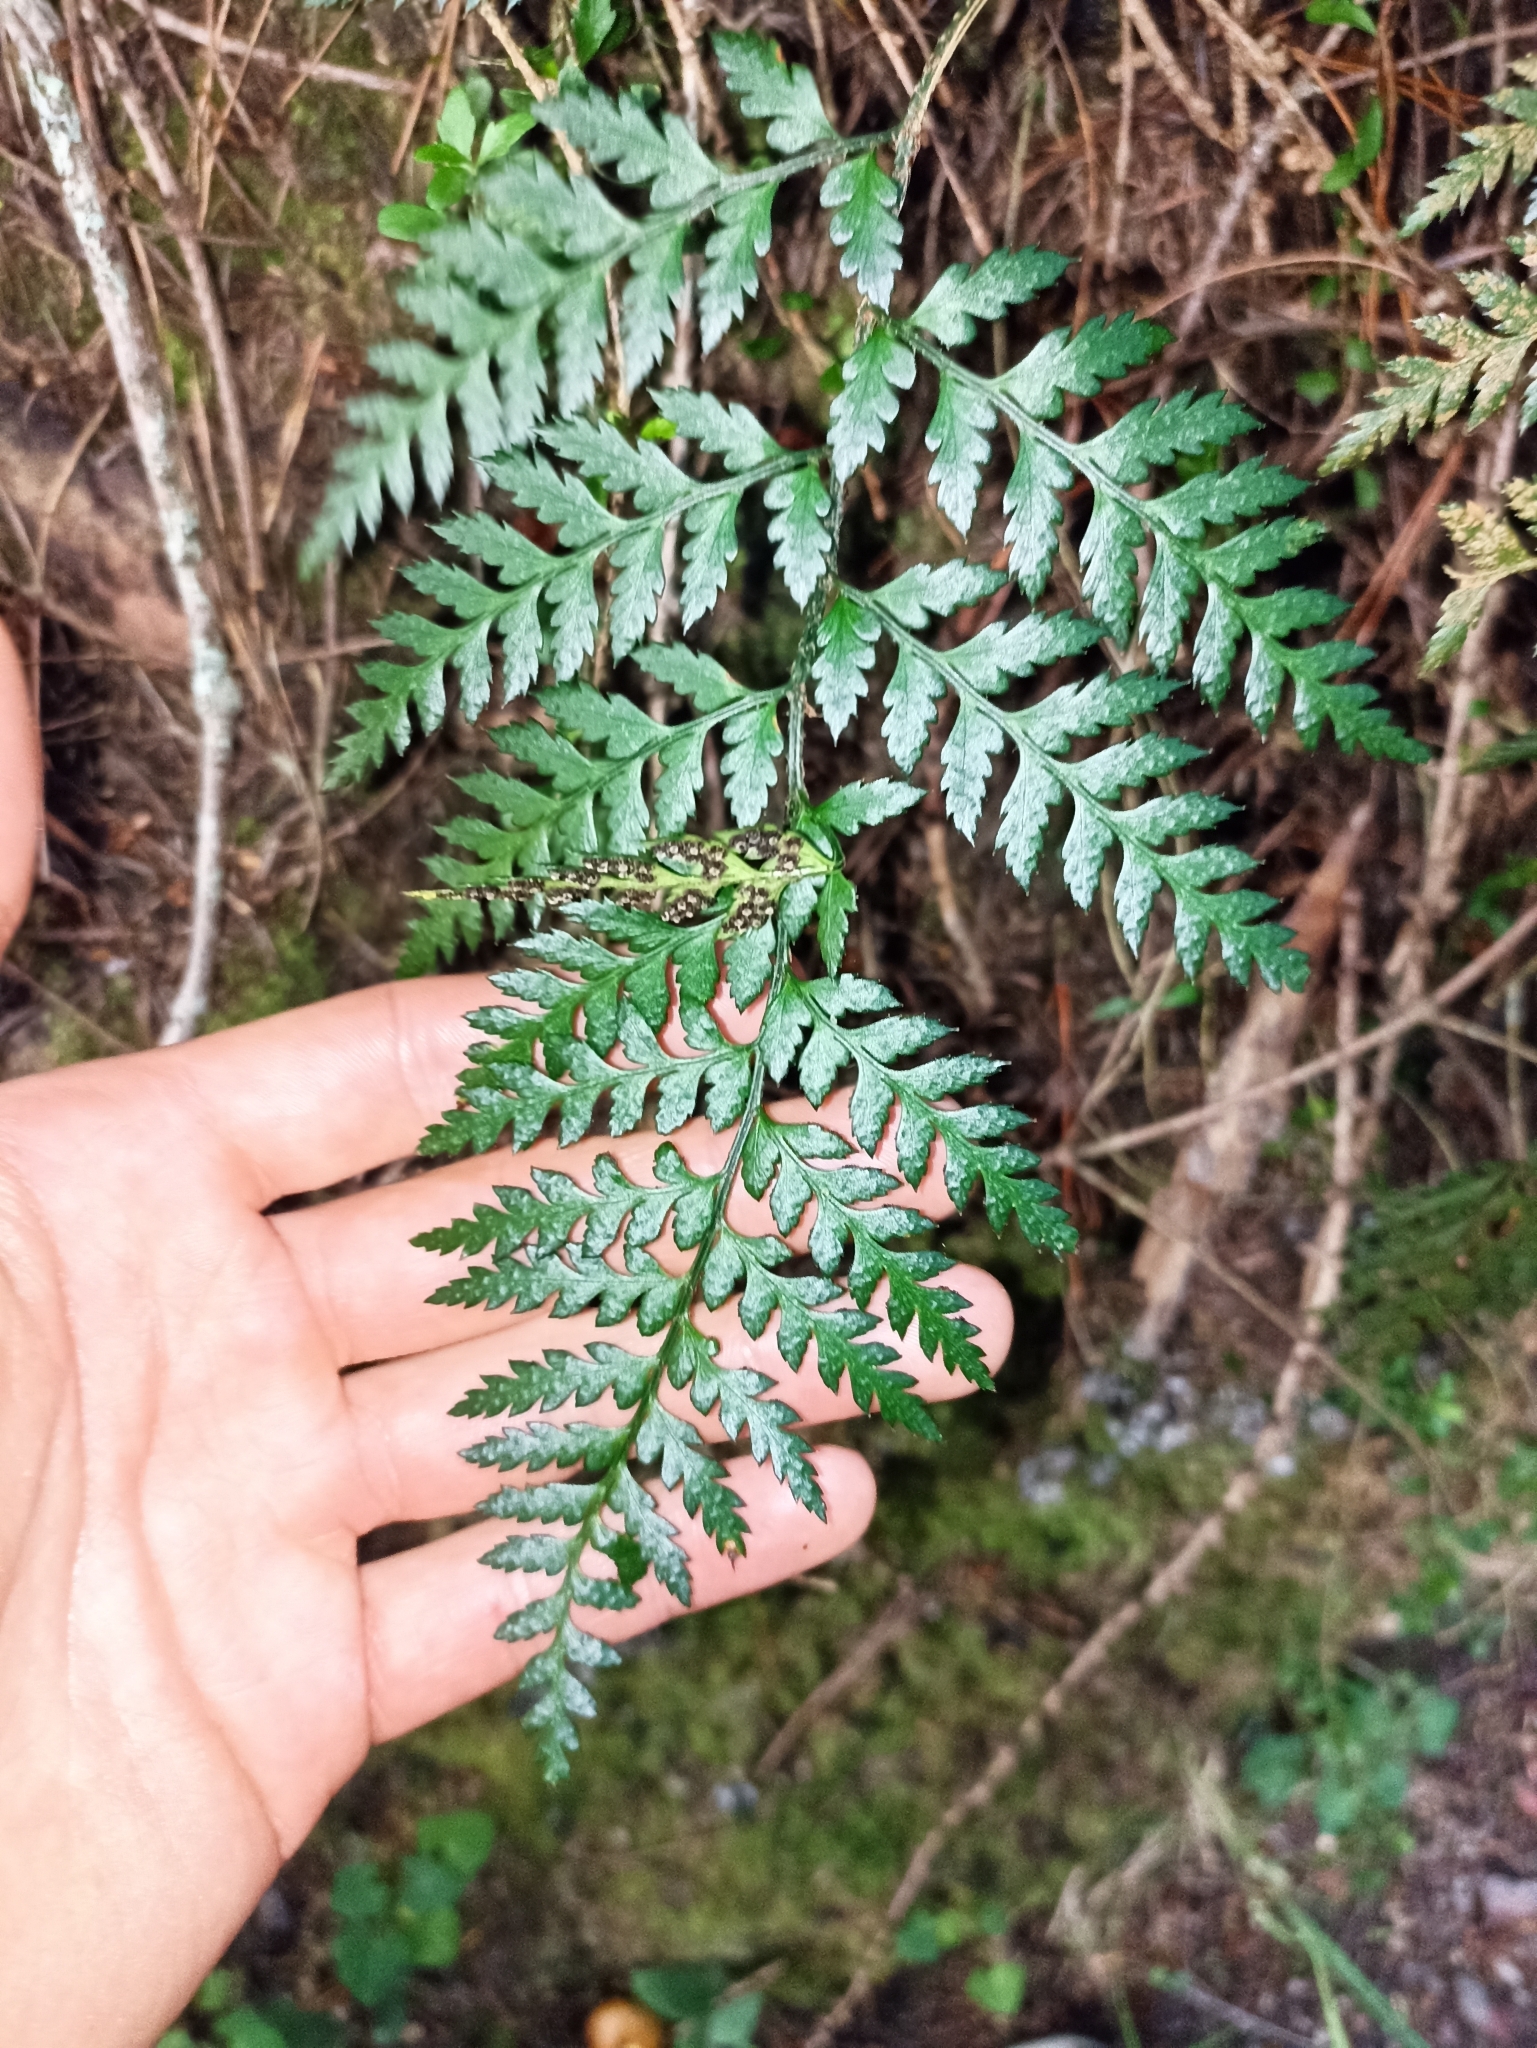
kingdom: Plantae
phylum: Tracheophyta
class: Polypodiopsida
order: Polypodiales
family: Dryopteridaceae
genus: Polystichum
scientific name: Polystichum oculatum
